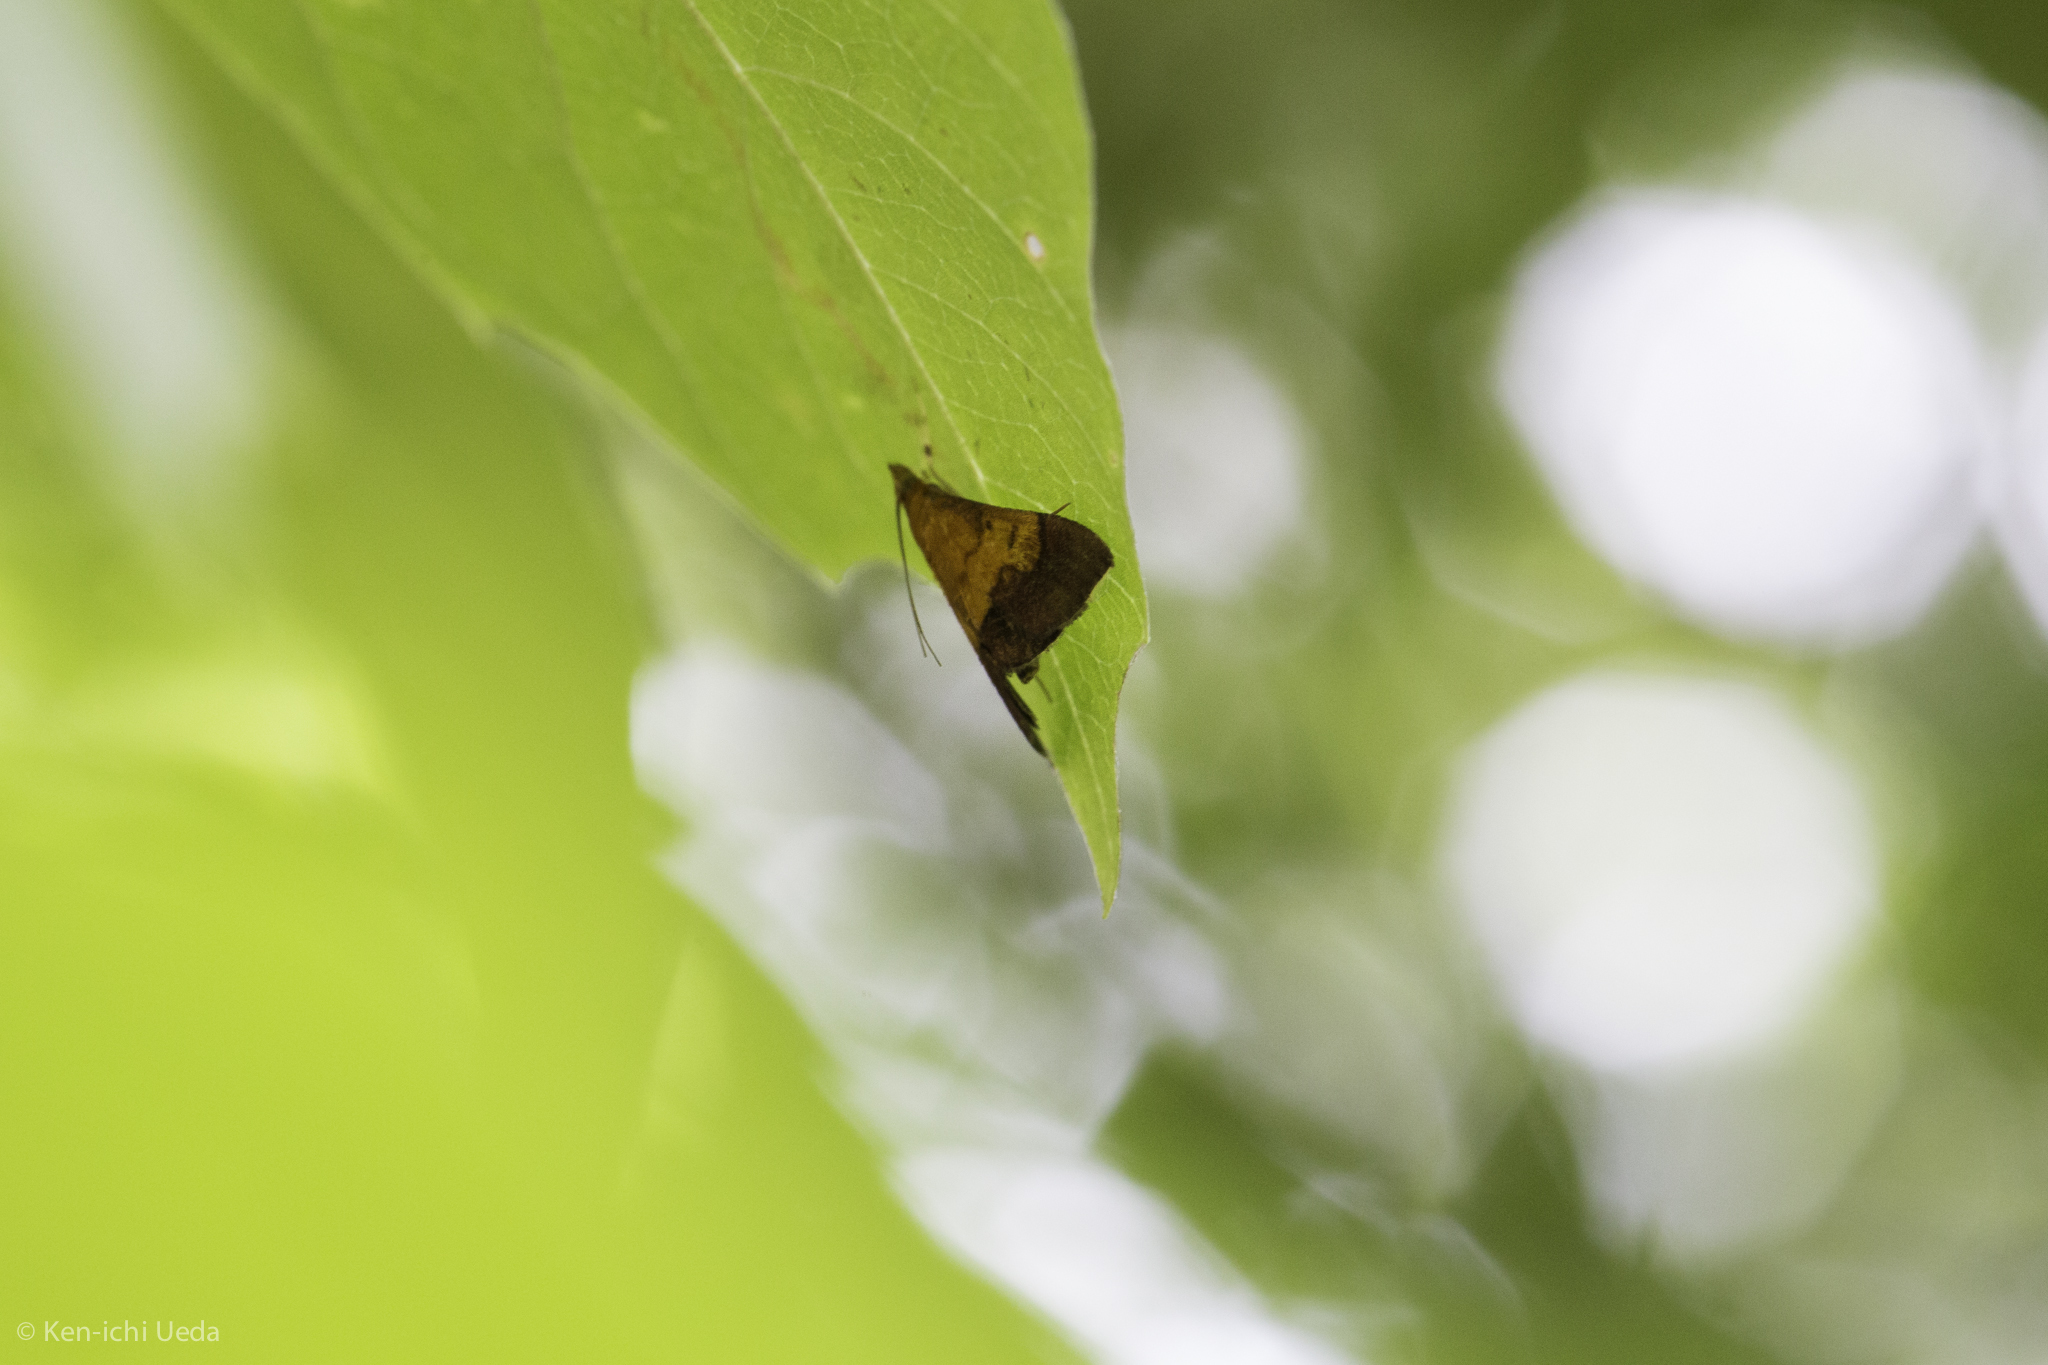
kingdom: Animalia
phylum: Arthropoda
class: Insecta
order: Lepidoptera
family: Crambidae
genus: Pyrausta
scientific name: Pyrausta bicoloralis
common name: Bicolored pyrausta moth
